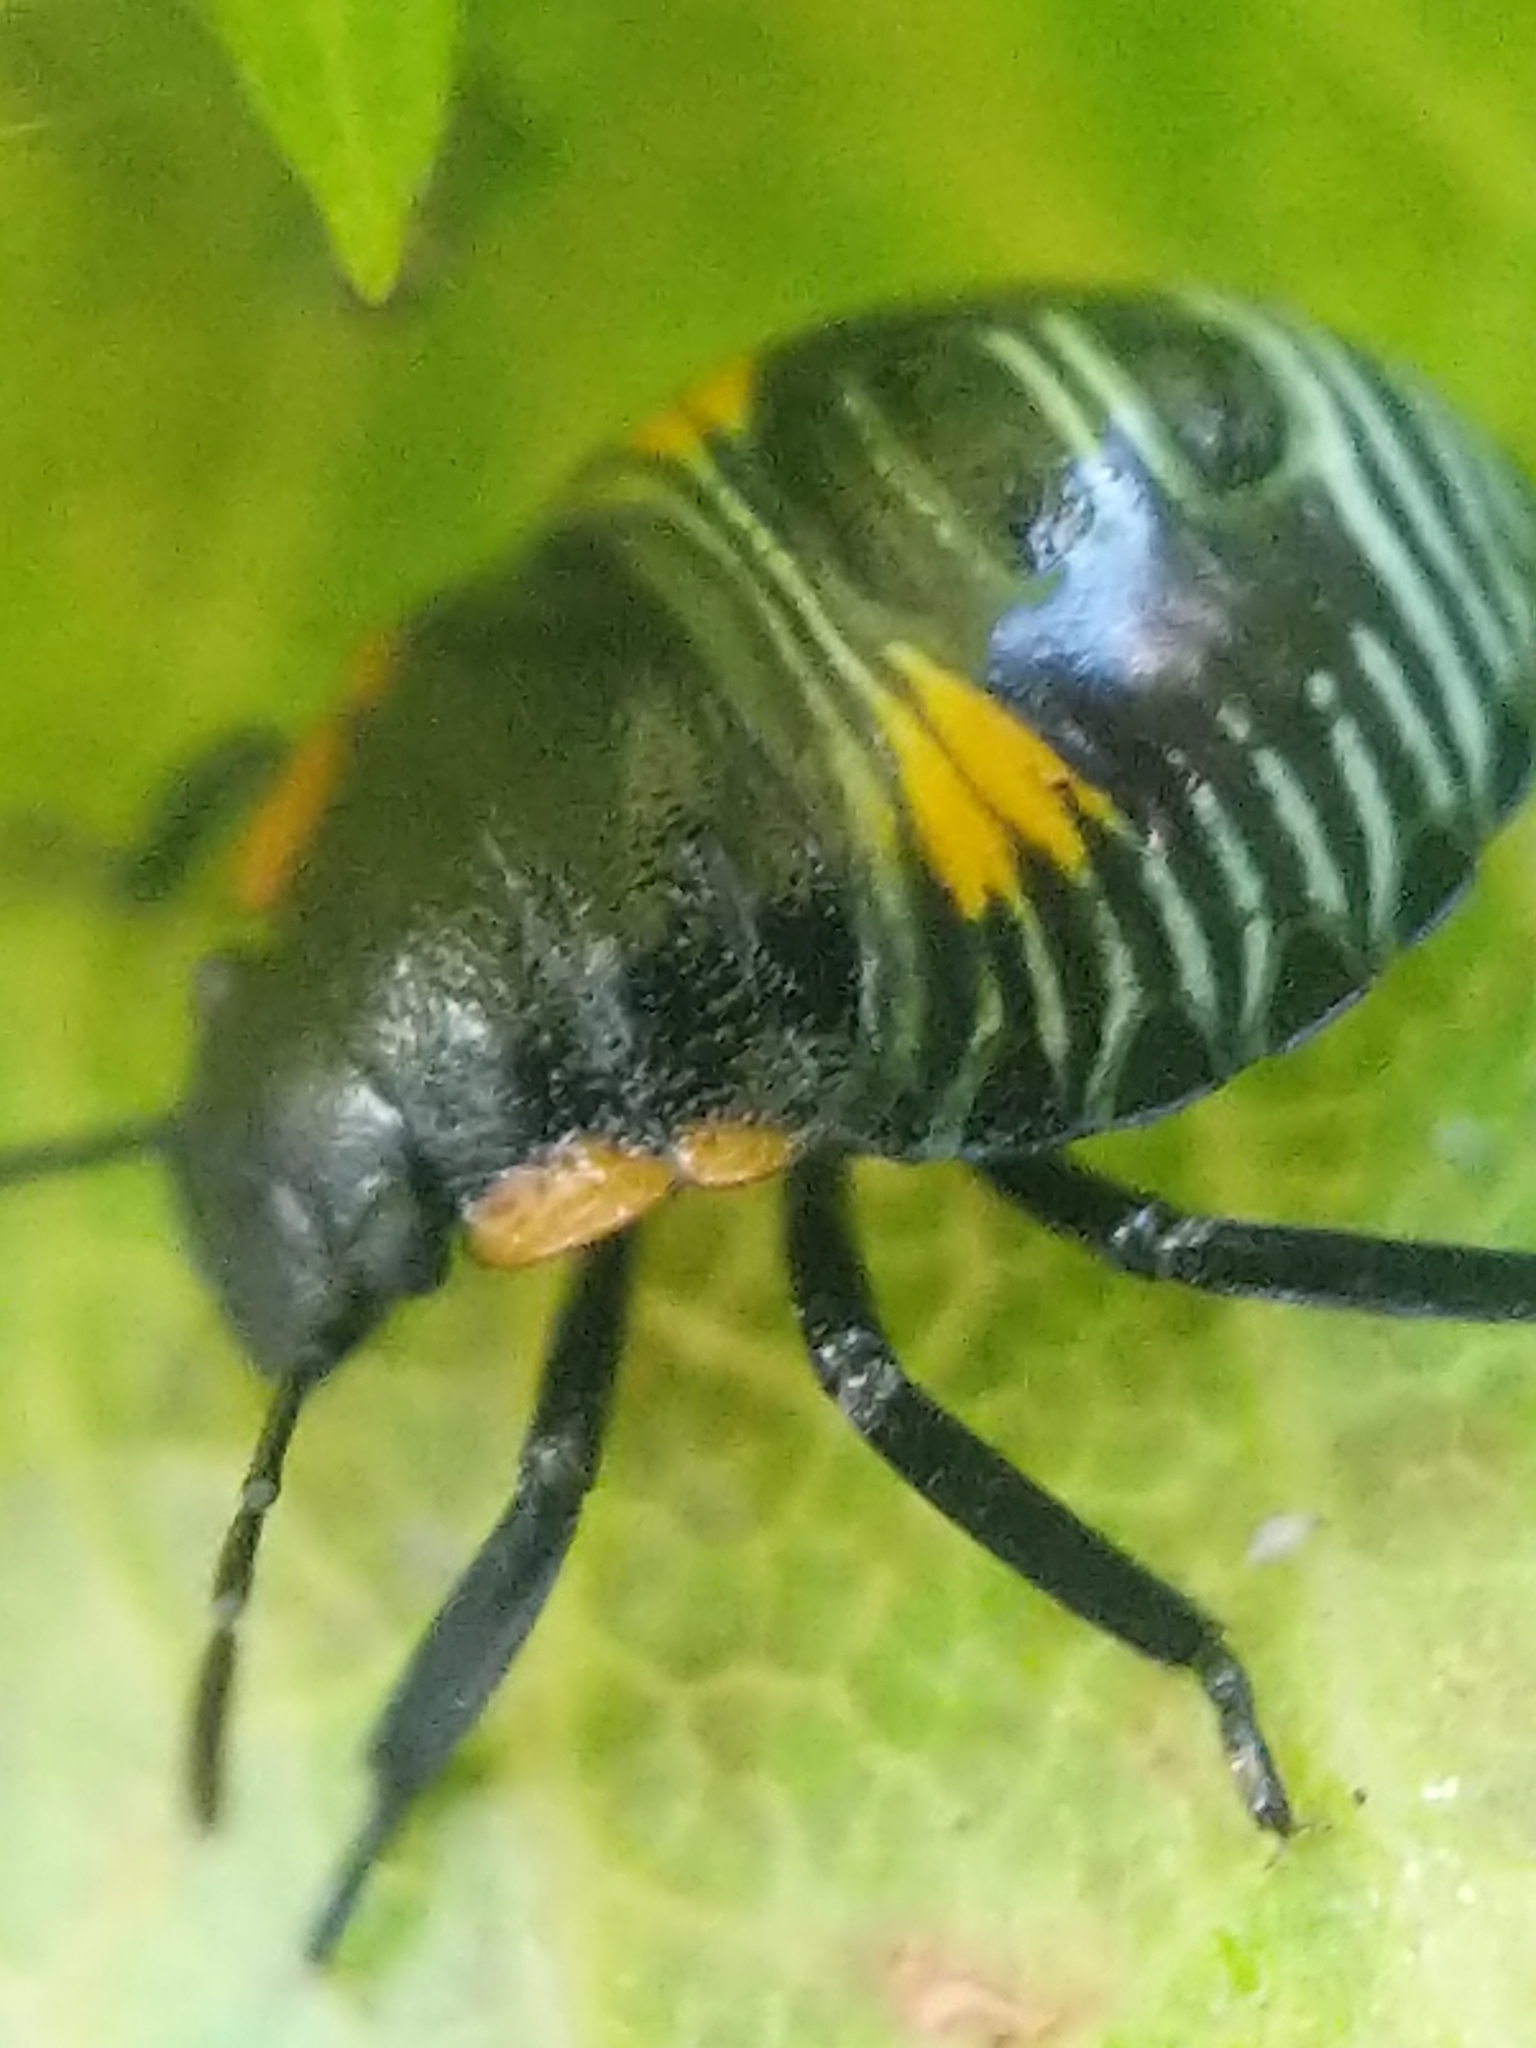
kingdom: Animalia
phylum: Arthropoda
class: Insecta
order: Hemiptera
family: Pentatomidae
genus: Chinavia
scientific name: Chinavia hilaris
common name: Green stink bug
